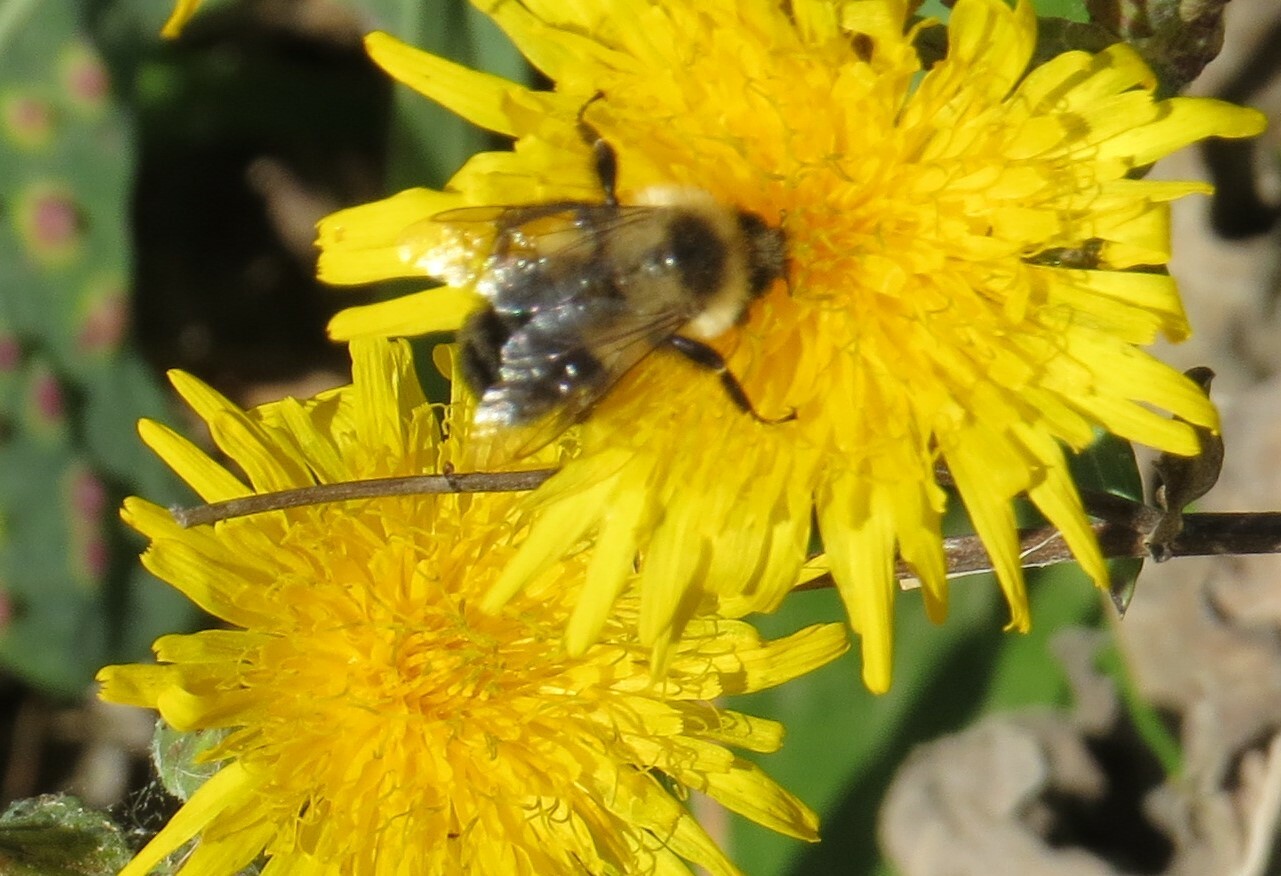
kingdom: Animalia
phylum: Arthropoda
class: Insecta
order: Hymenoptera
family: Apidae
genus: Bombus
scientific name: Bombus impatiens
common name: Common eastern bumble bee
